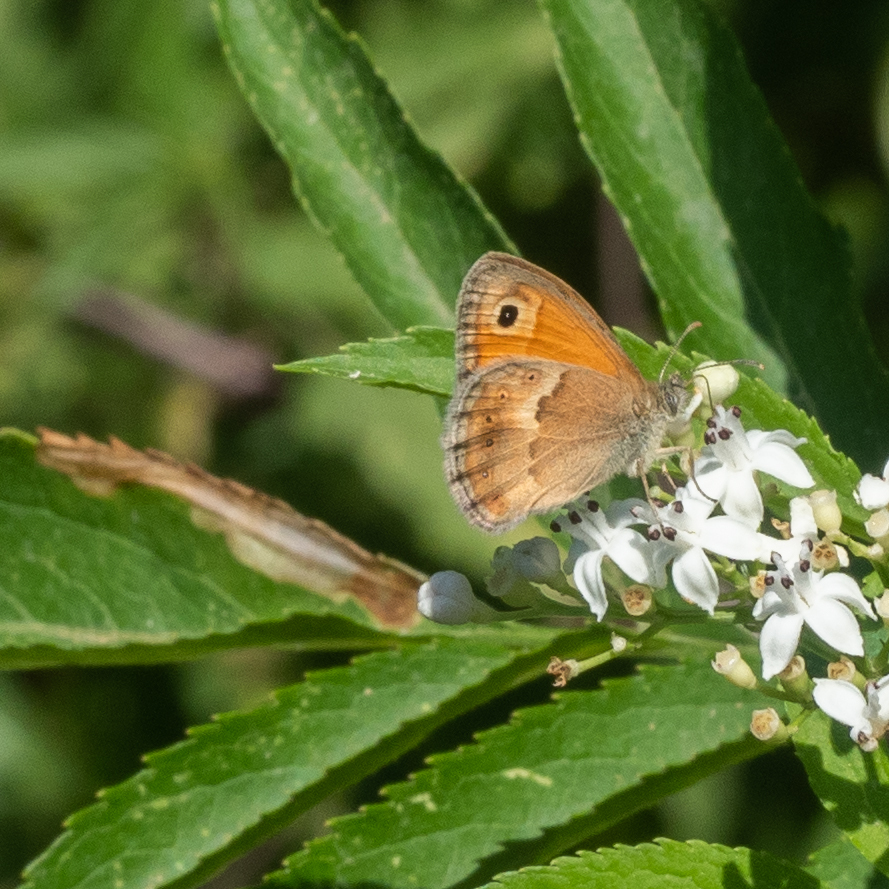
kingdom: Animalia
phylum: Arthropoda
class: Insecta
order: Lepidoptera
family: Nymphalidae
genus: Coenonympha
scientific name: Coenonympha pamphilus
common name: Small heath
